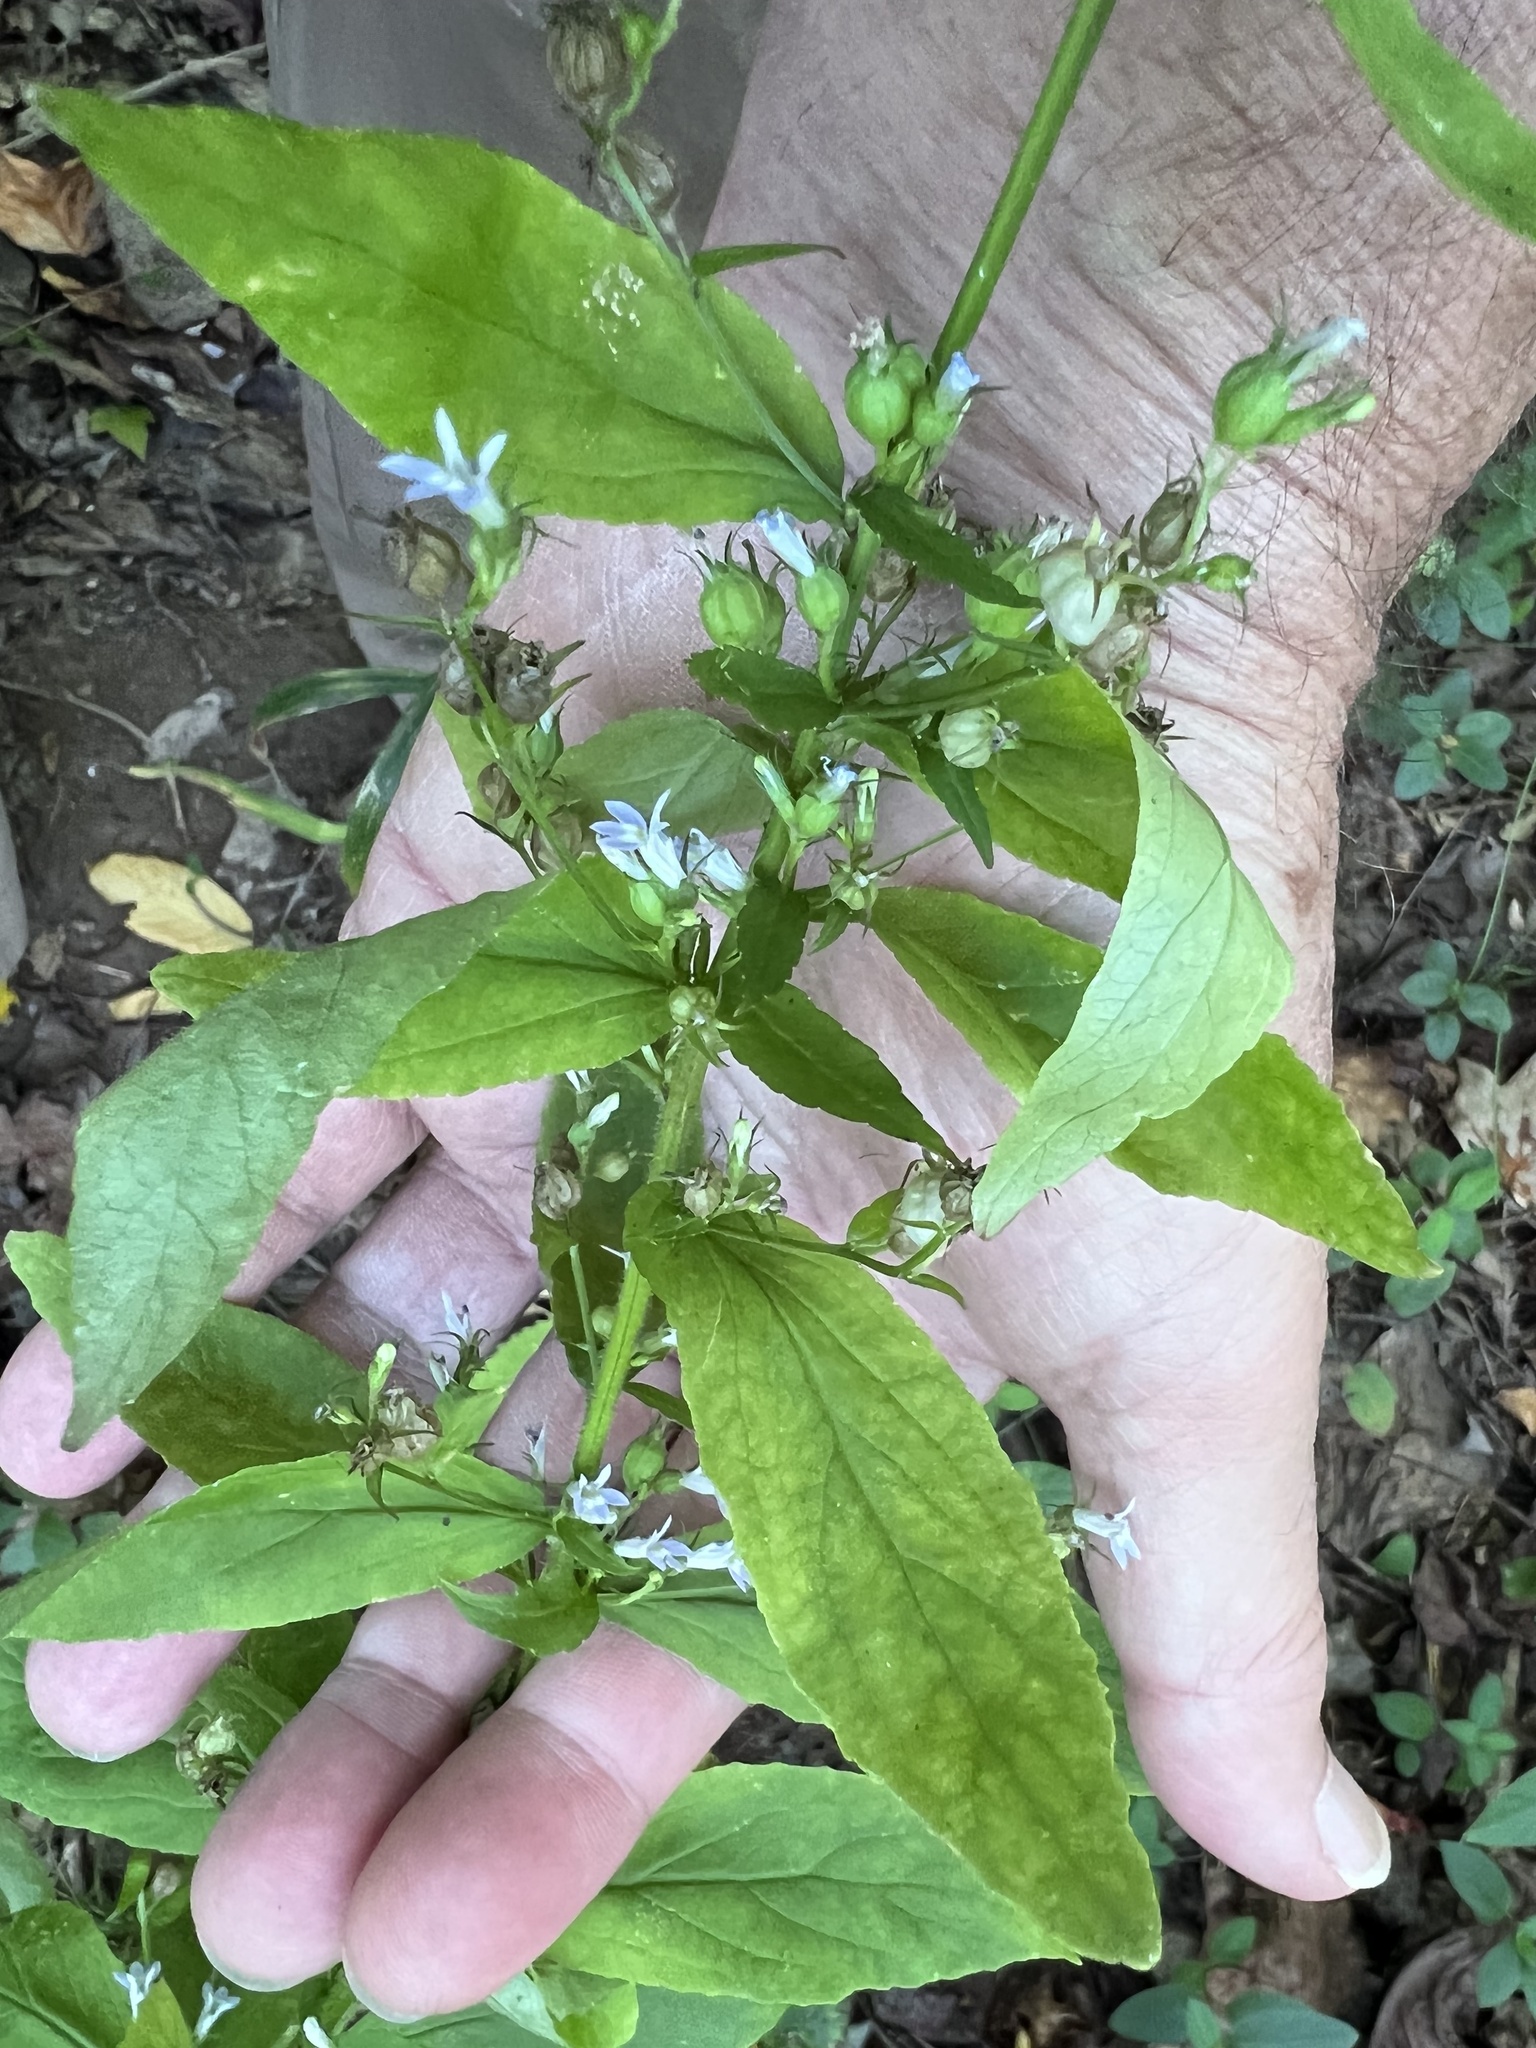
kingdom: Plantae
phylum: Tracheophyta
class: Magnoliopsida
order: Asterales
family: Campanulaceae
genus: Lobelia
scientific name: Lobelia inflata
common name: Indian tobacco
